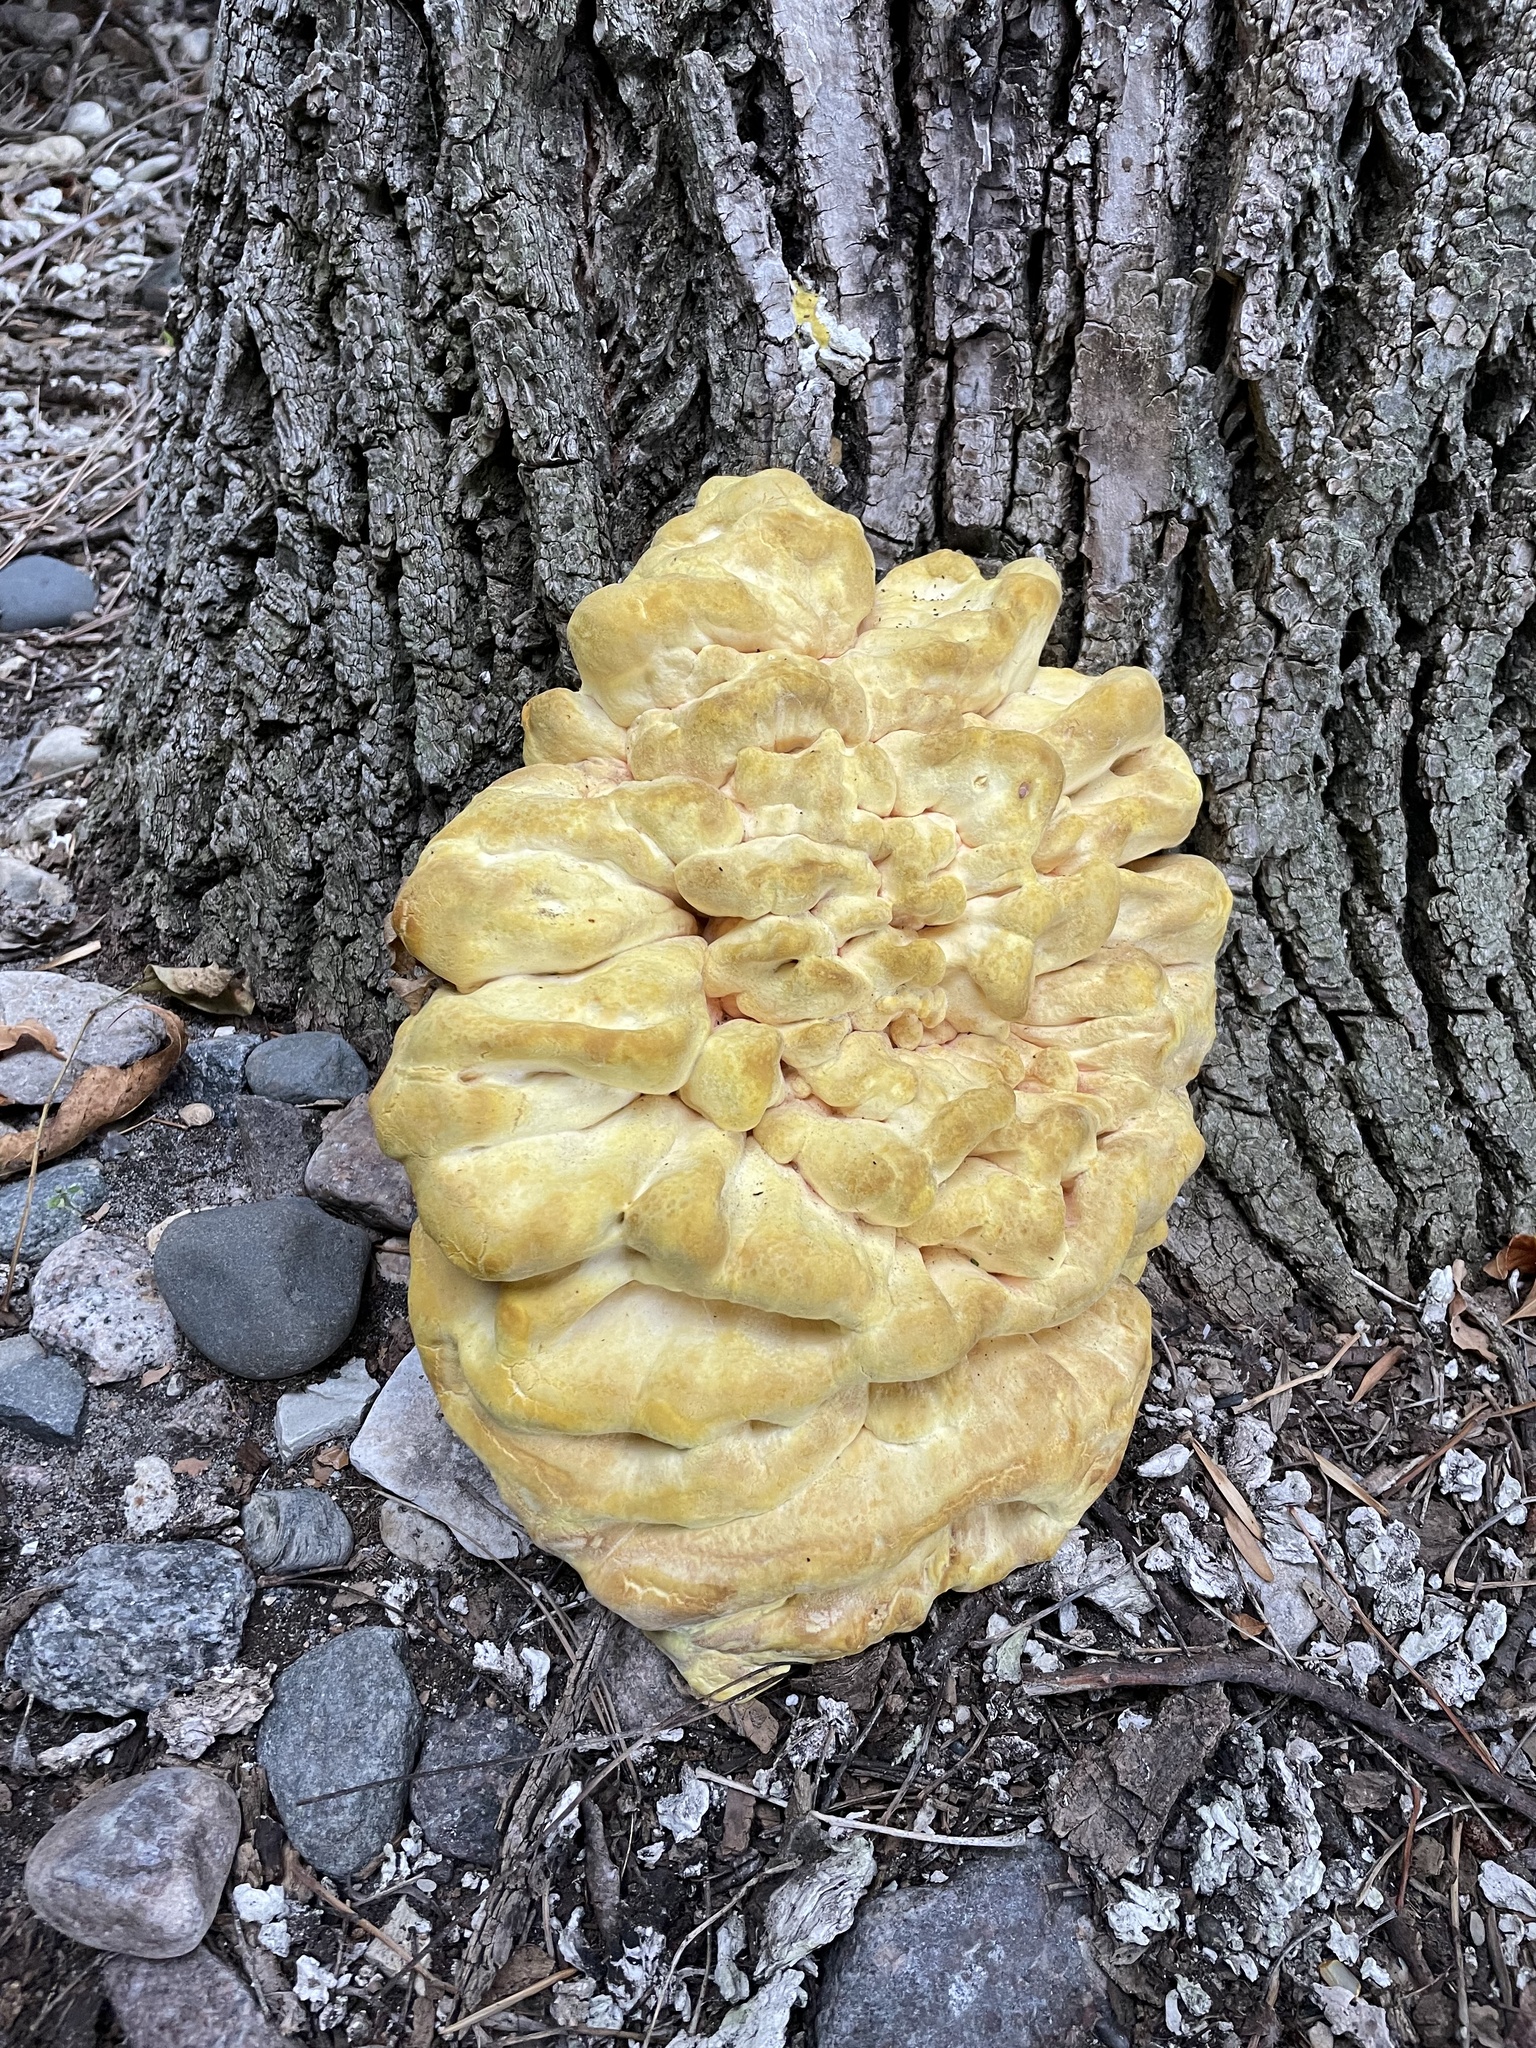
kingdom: Fungi
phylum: Basidiomycota
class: Agaricomycetes
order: Polyporales
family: Laetiporaceae
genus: Laetiporus
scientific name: Laetiporus sulphureus
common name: Chicken of the woods
